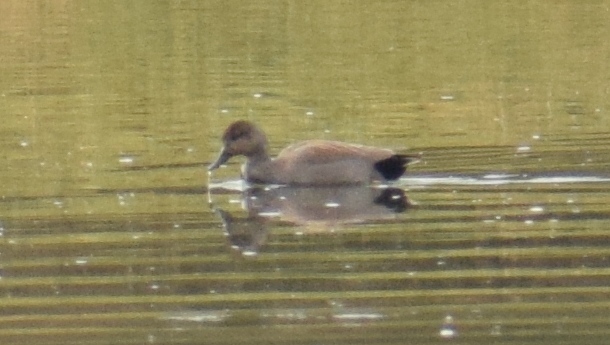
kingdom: Animalia
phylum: Chordata
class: Aves
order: Anseriformes
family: Anatidae
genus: Mareca
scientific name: Mareca strepera
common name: Gadwall
